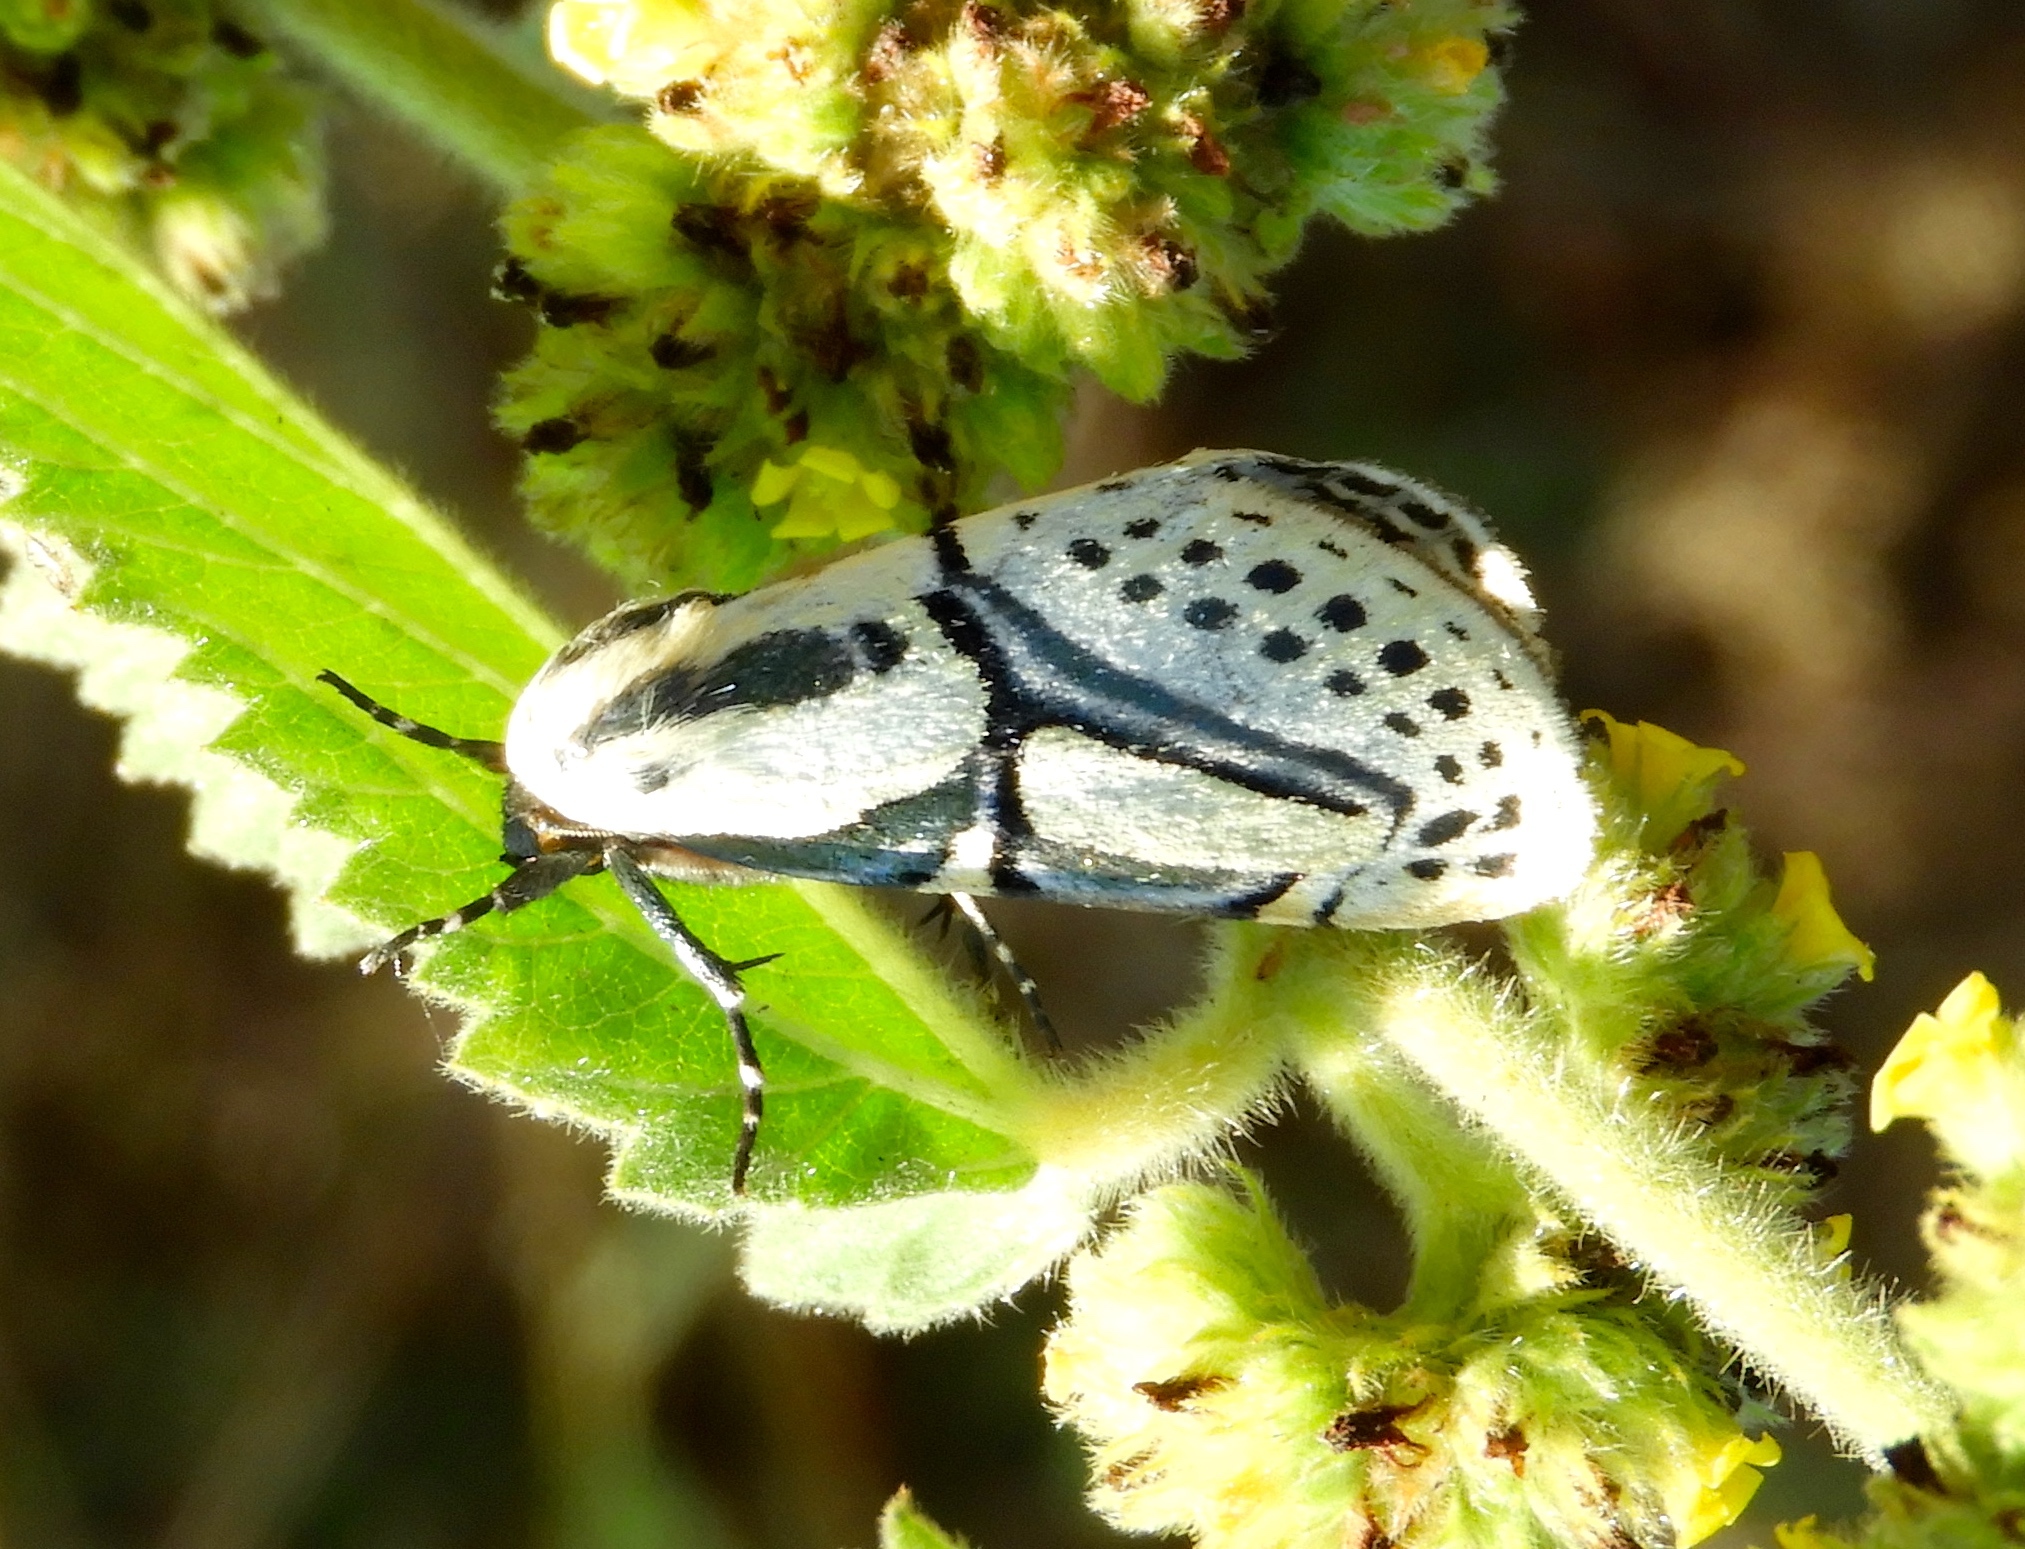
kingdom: Animalia
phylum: Arthropoda
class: Insecta
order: Lepidoptera
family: Erebidae
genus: Diphthera
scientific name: Diphthera festiva
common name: Hieroglyphic moth
